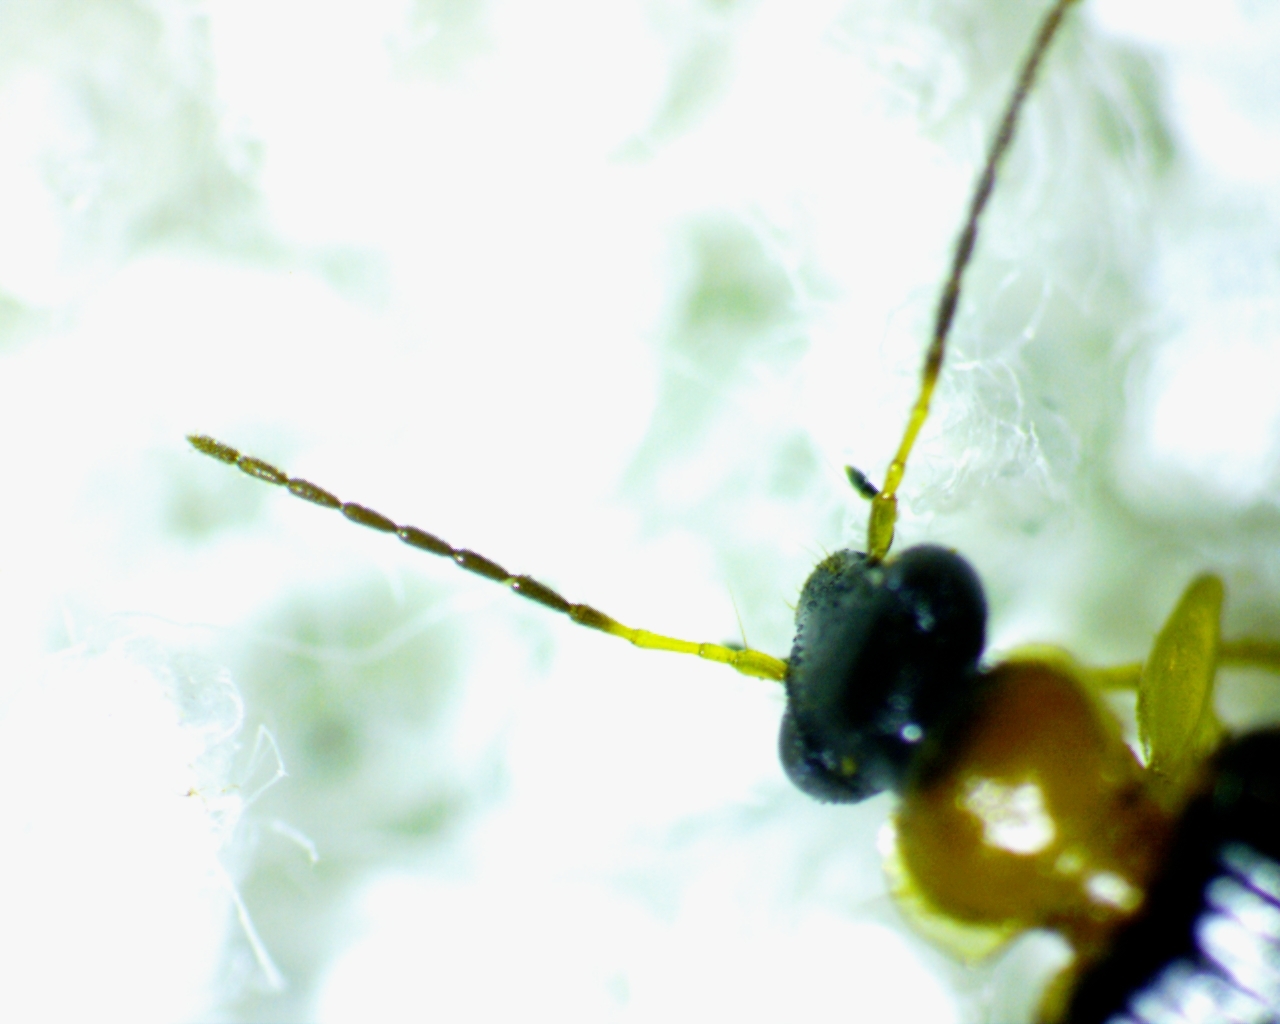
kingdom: Animalia
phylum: Arthropoda
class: Insecta
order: Coleoptera
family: Carabidae
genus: Lebia
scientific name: Lebia analis
